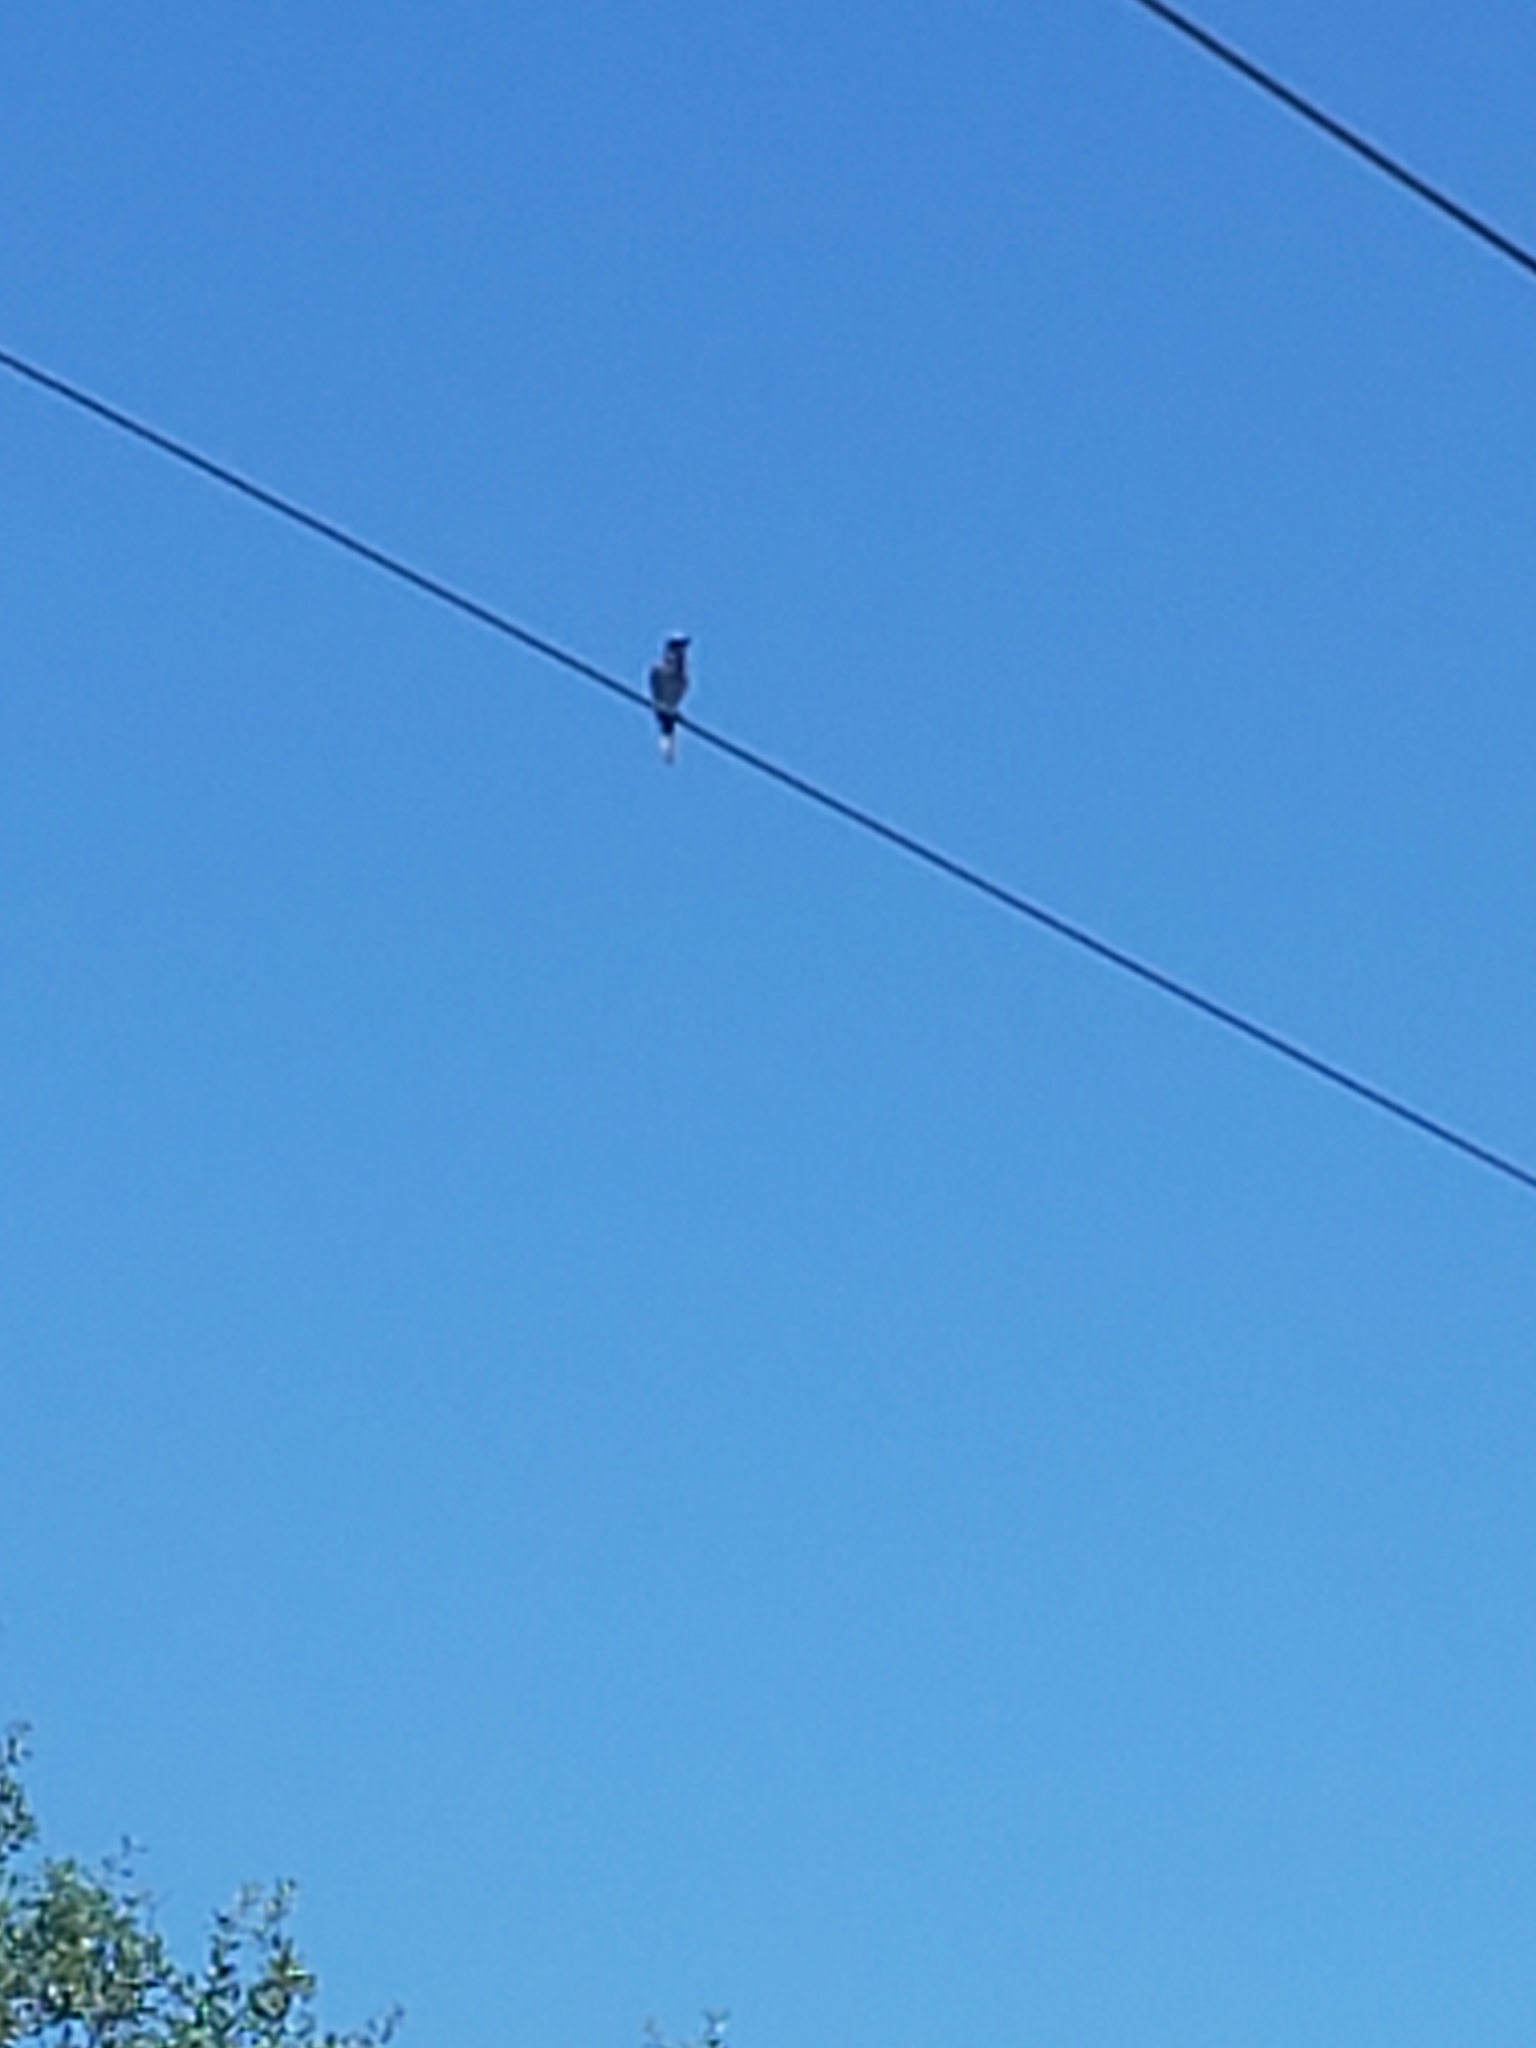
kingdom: Animalia
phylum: Chordata
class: Aves
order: Passeriformes
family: Corvidae
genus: Aphelocoma
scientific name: Aphelocoma coerulescens
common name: Florida scrub jay
